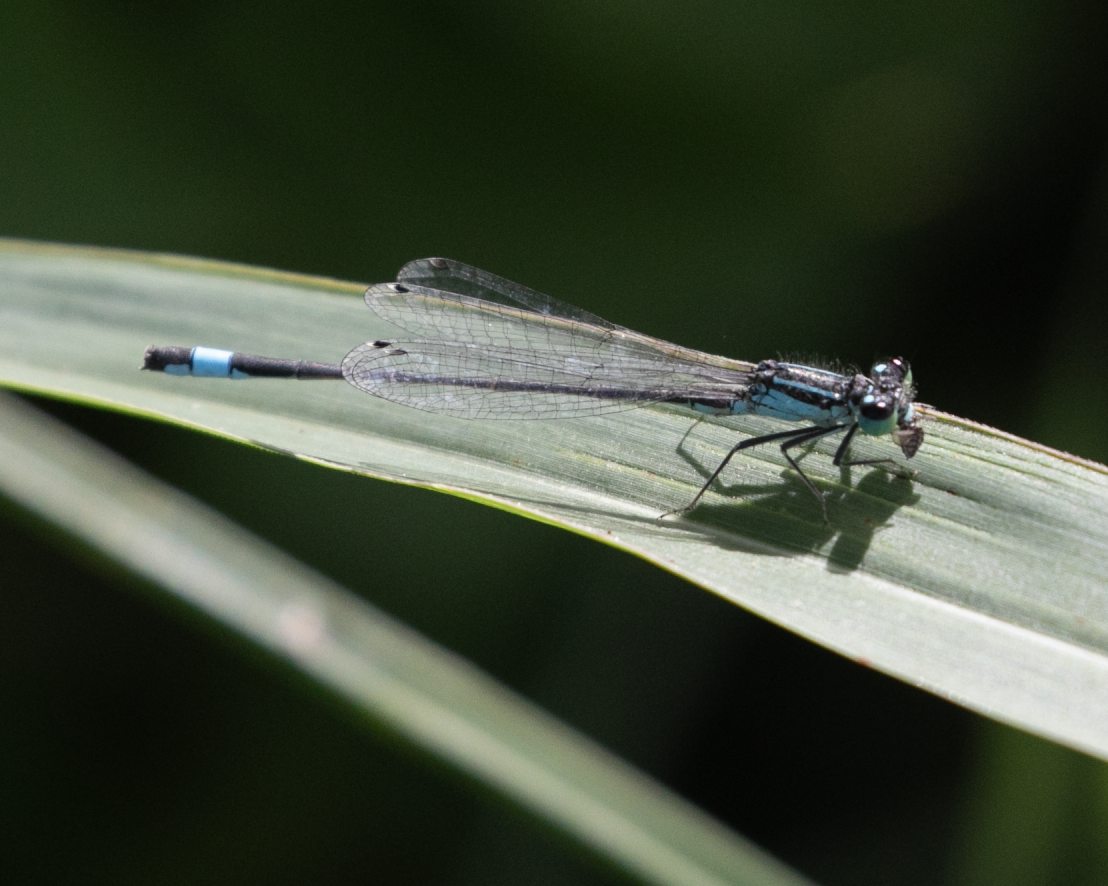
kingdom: Animalia
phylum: Arthropoda
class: Insecta
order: Odonata
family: Coenagrionidae
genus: Ischnura
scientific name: Ischnura elegans
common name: Blue-tailed damselfly
